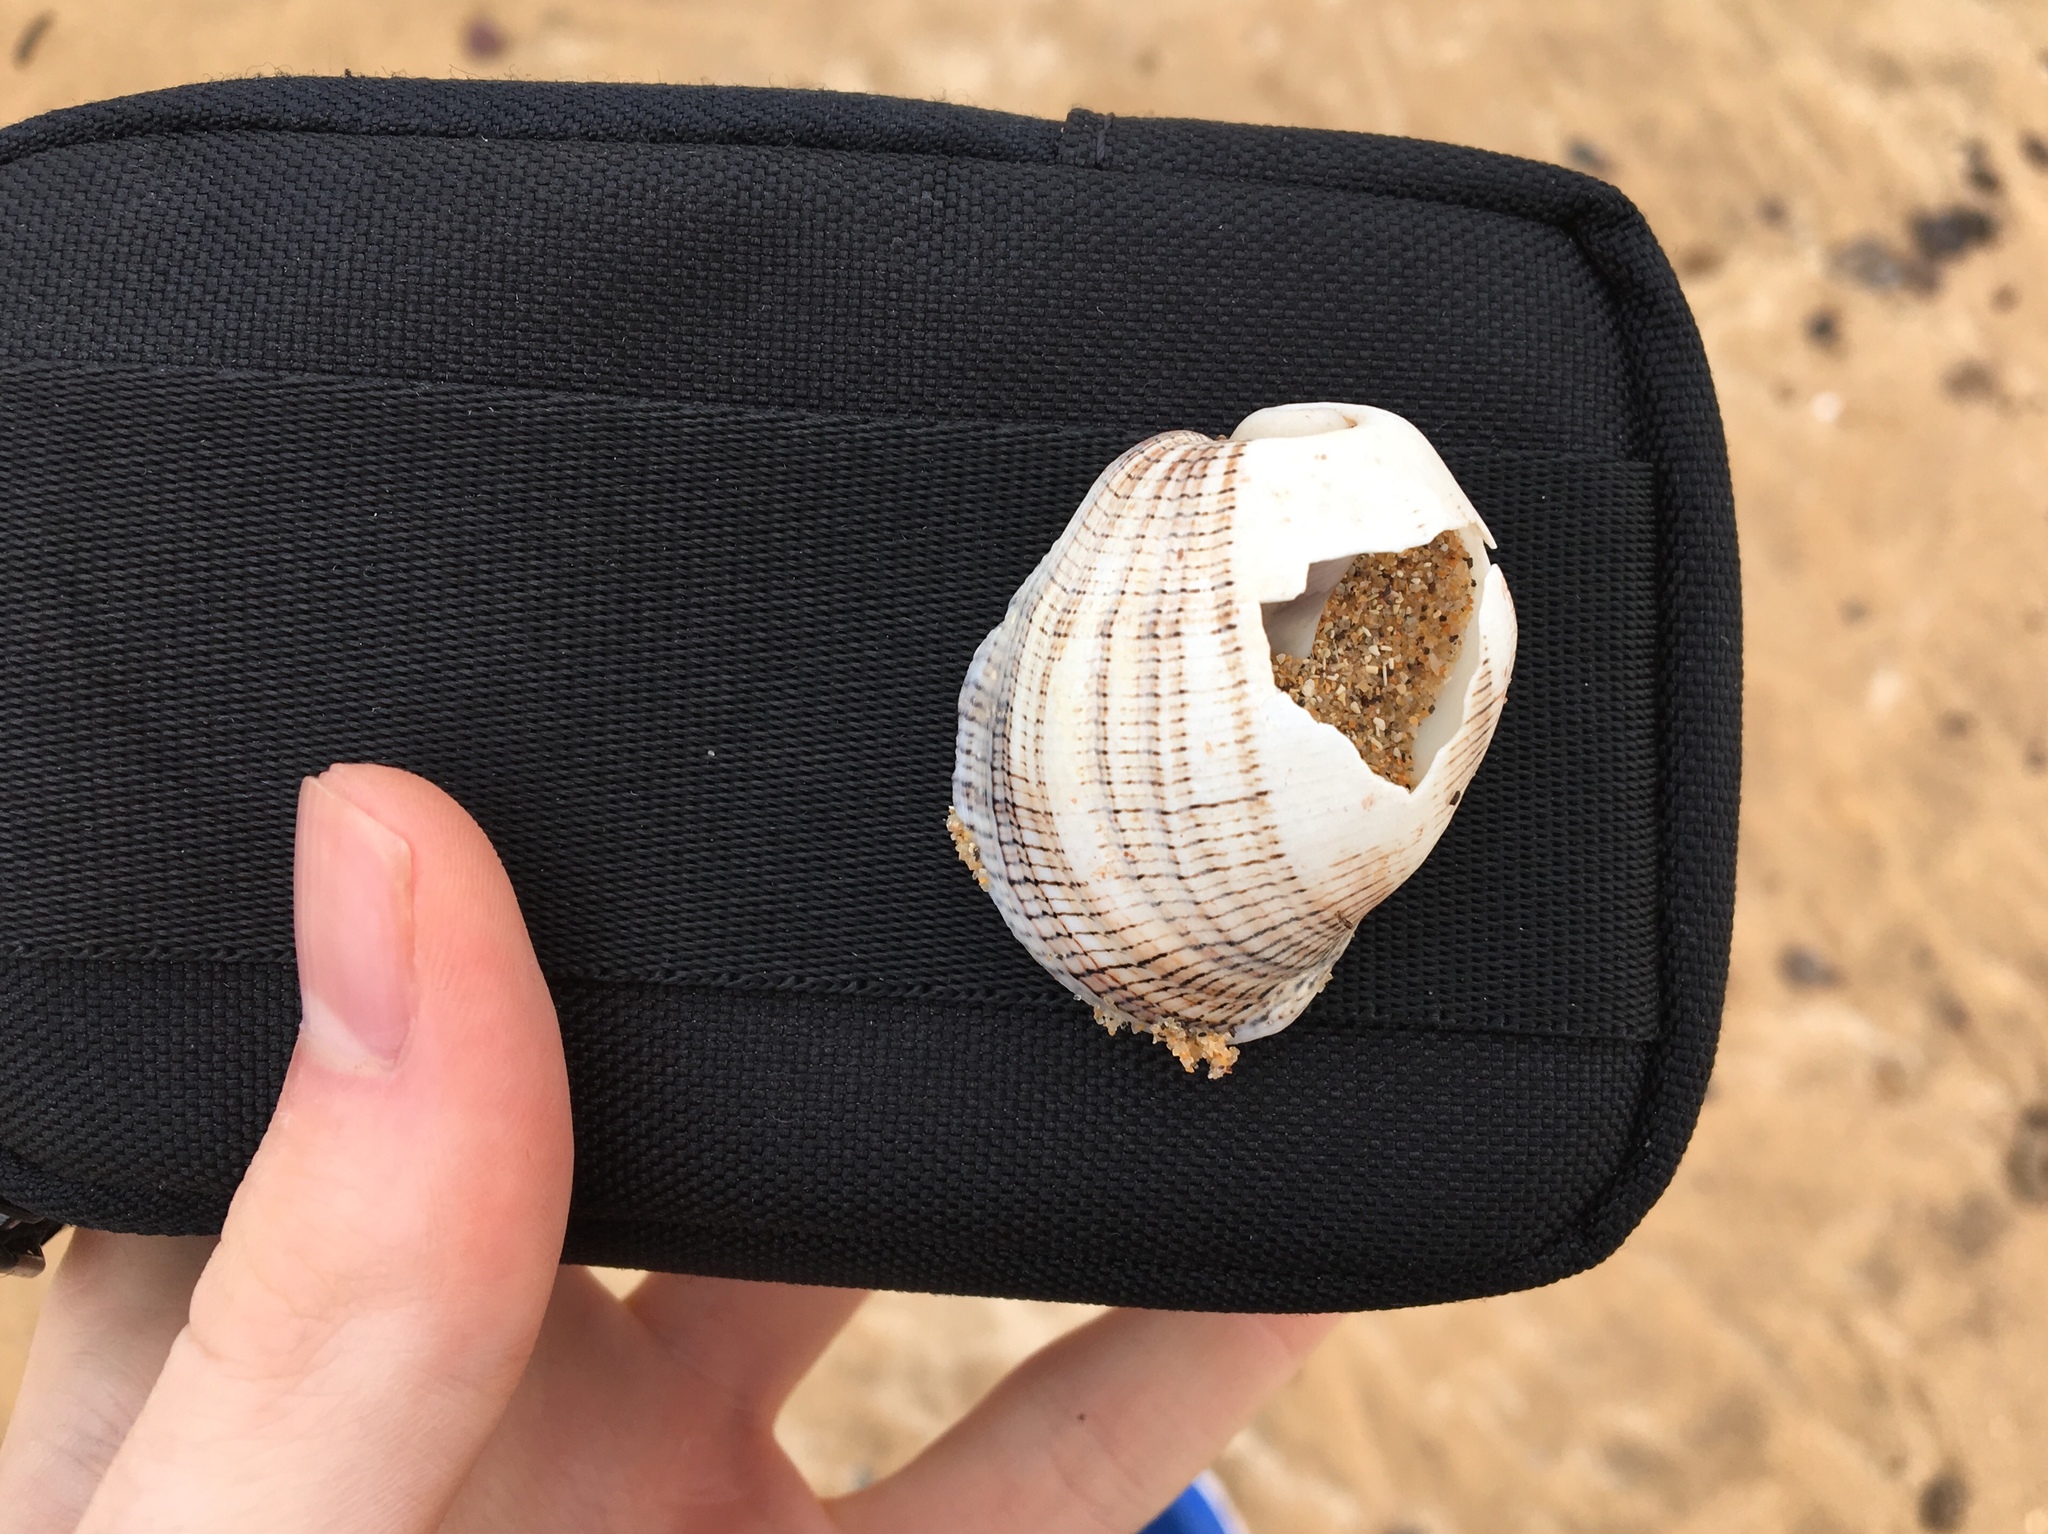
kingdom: Animalia
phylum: Mollusca
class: Gastropoda
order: Cephalaspidea
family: Aplustridae
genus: Hydatina
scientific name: Hydatina physis
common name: Brown-line paperbubble
